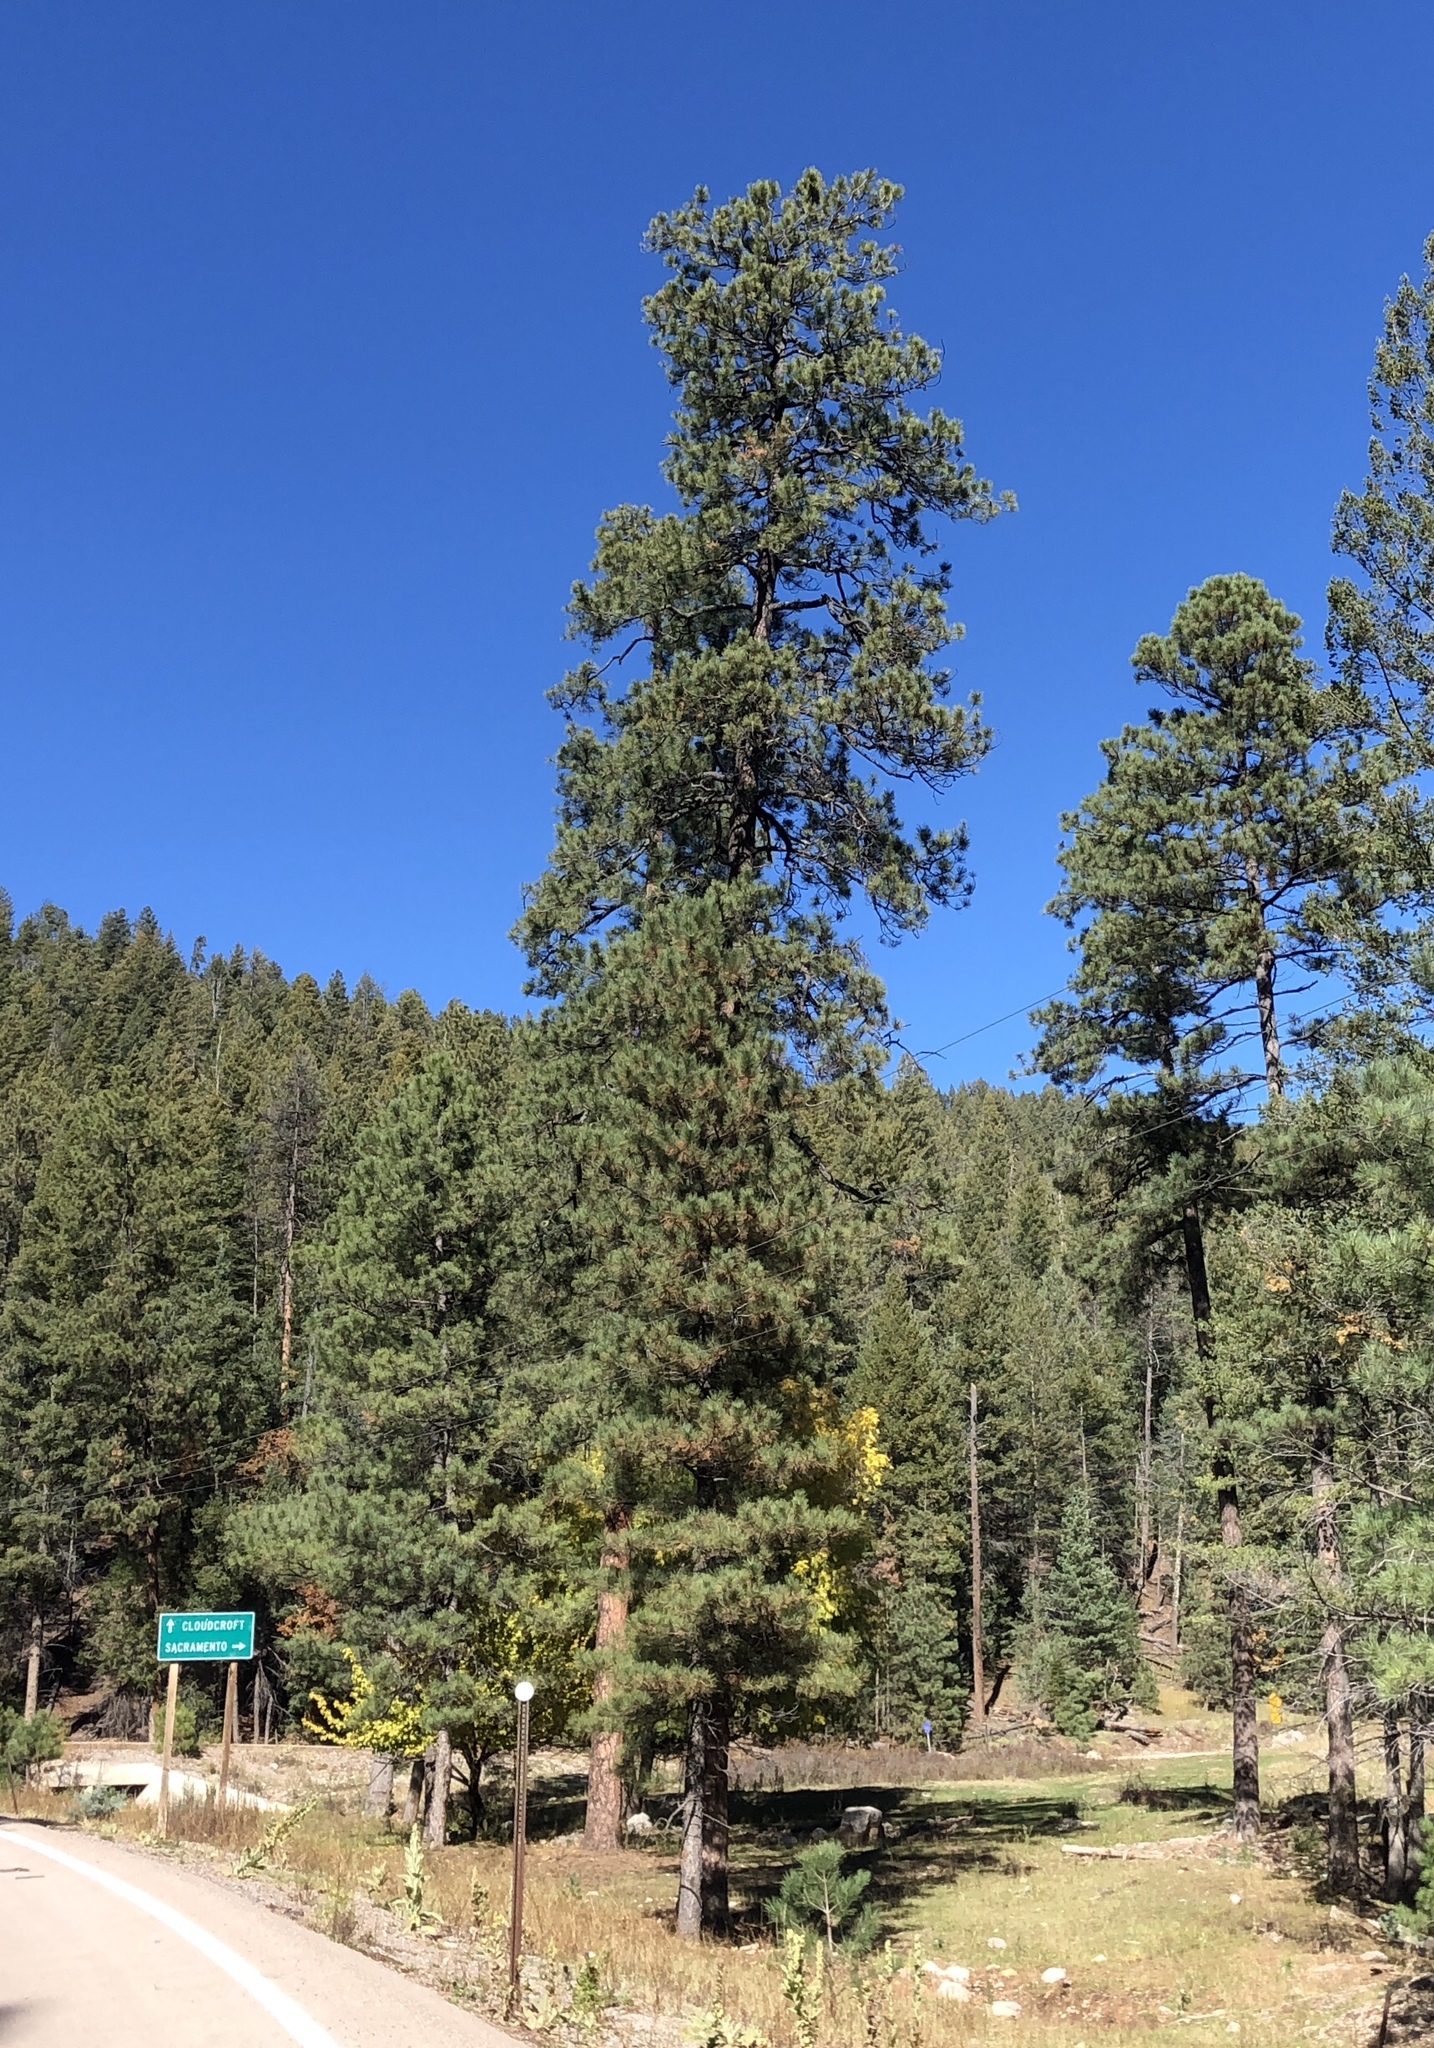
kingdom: Plantae
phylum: Tracheophyta
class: Pinopsida
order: Pinales
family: Pinaceae
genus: Pinus
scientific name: Pinus ponderosa
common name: Western yellow-pine
